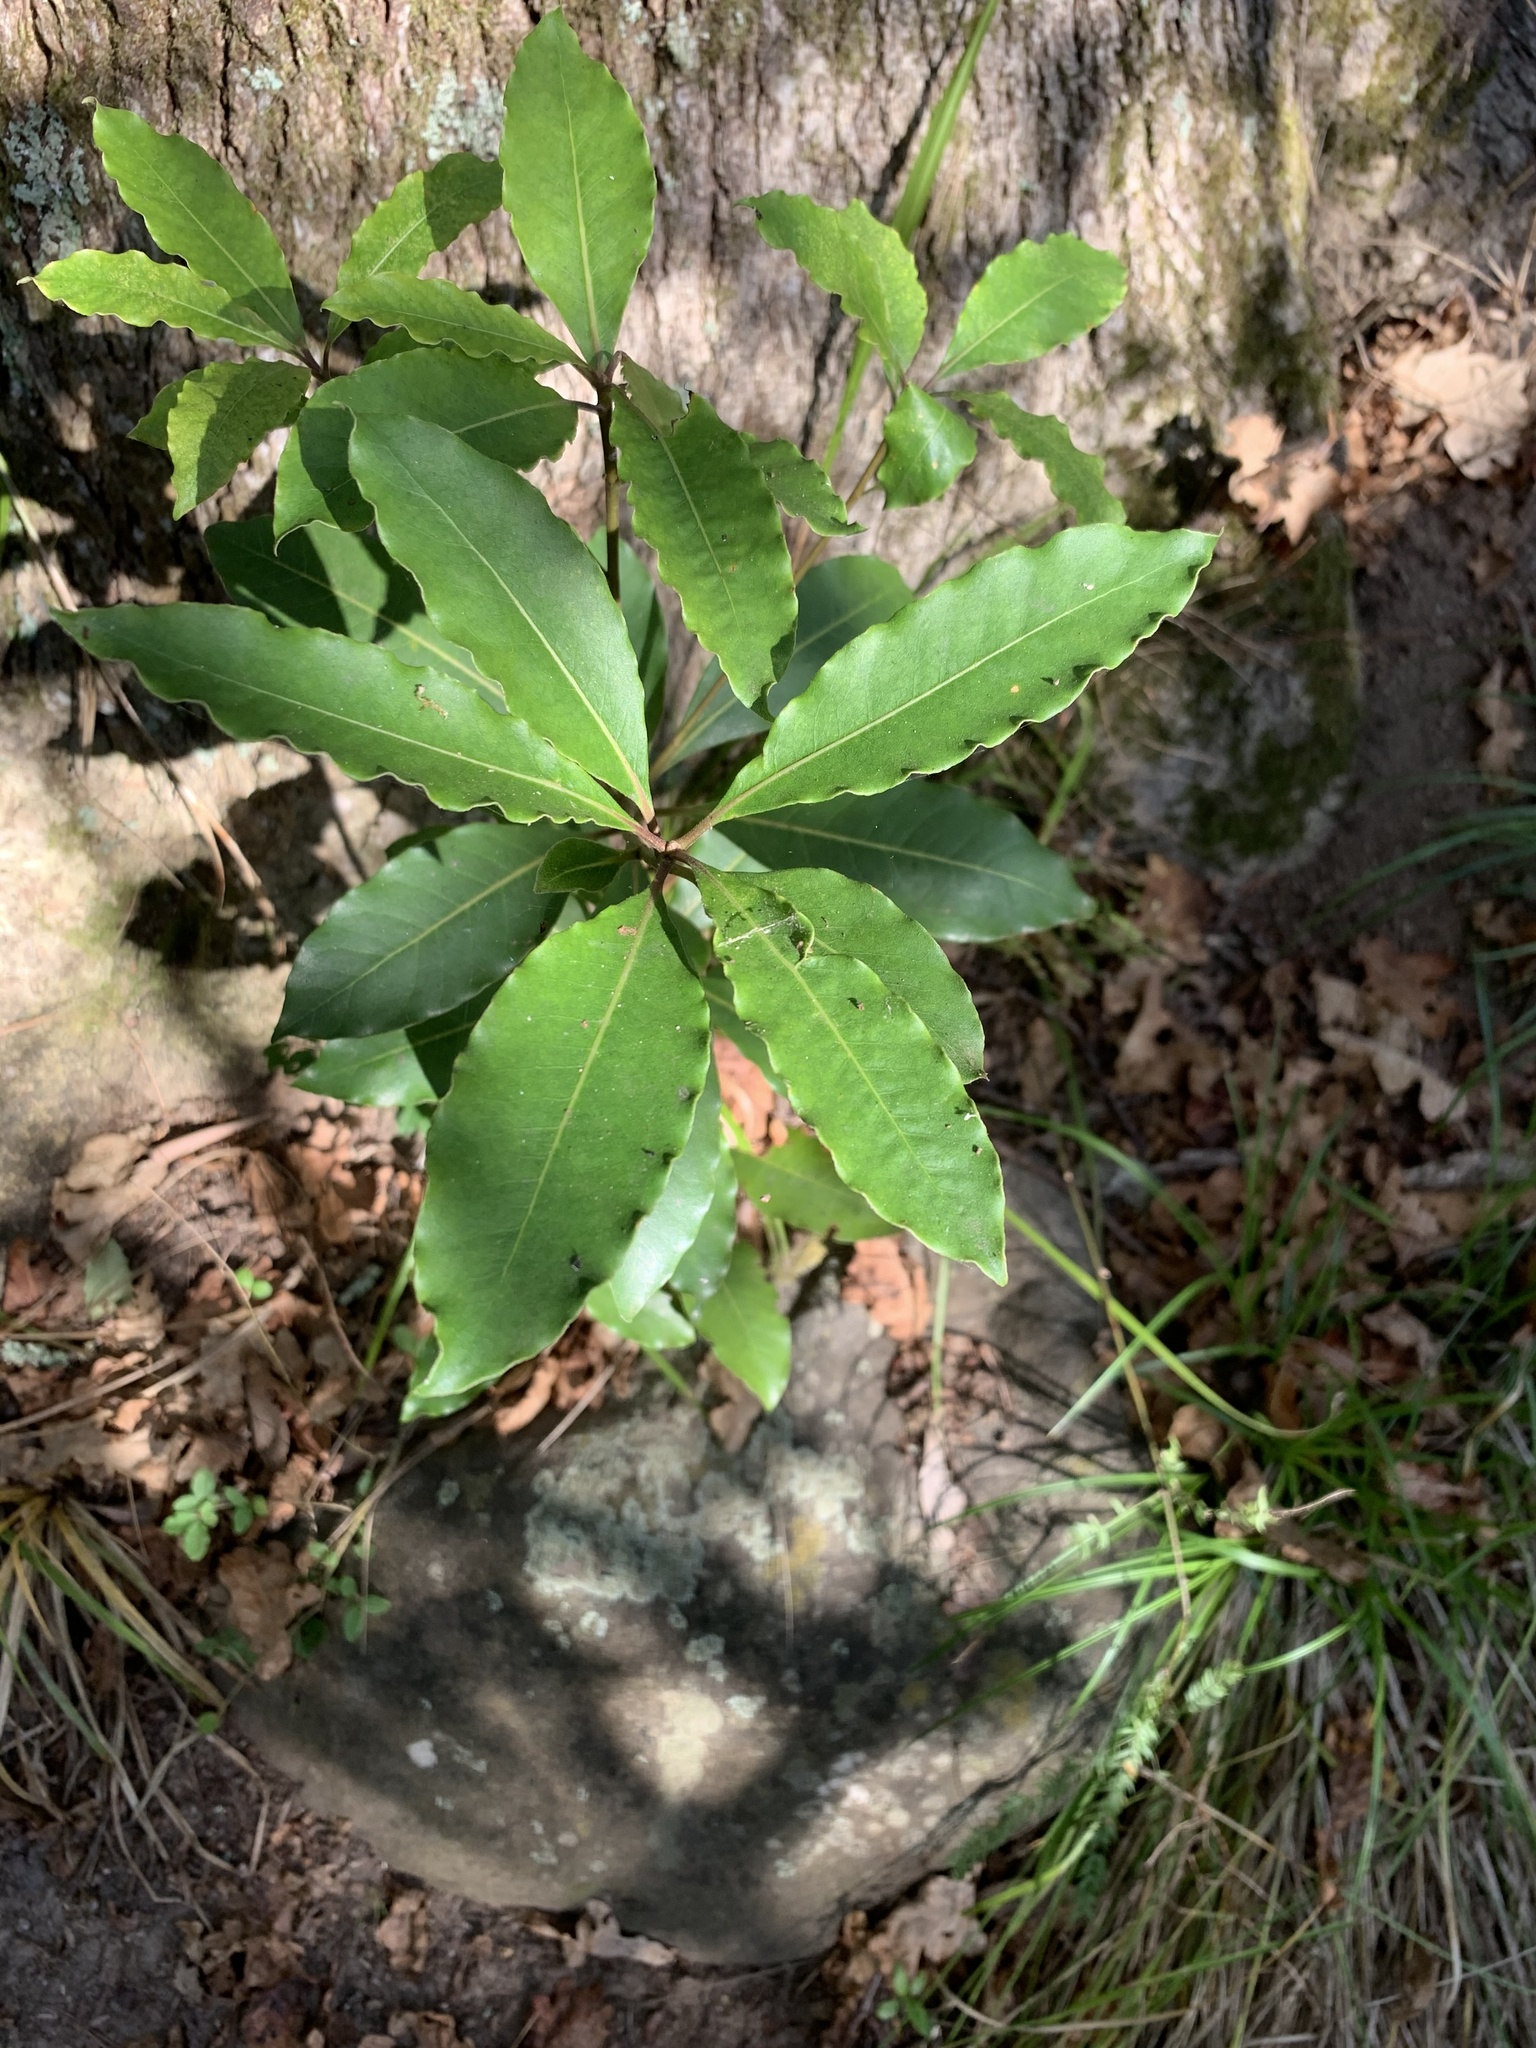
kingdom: Plantae
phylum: Tracheophyta
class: Magnoliopsida
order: Apiales
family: Pittosporaceae
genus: Pittosporum
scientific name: Pittosporum undulatum
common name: Australian cheesewood
